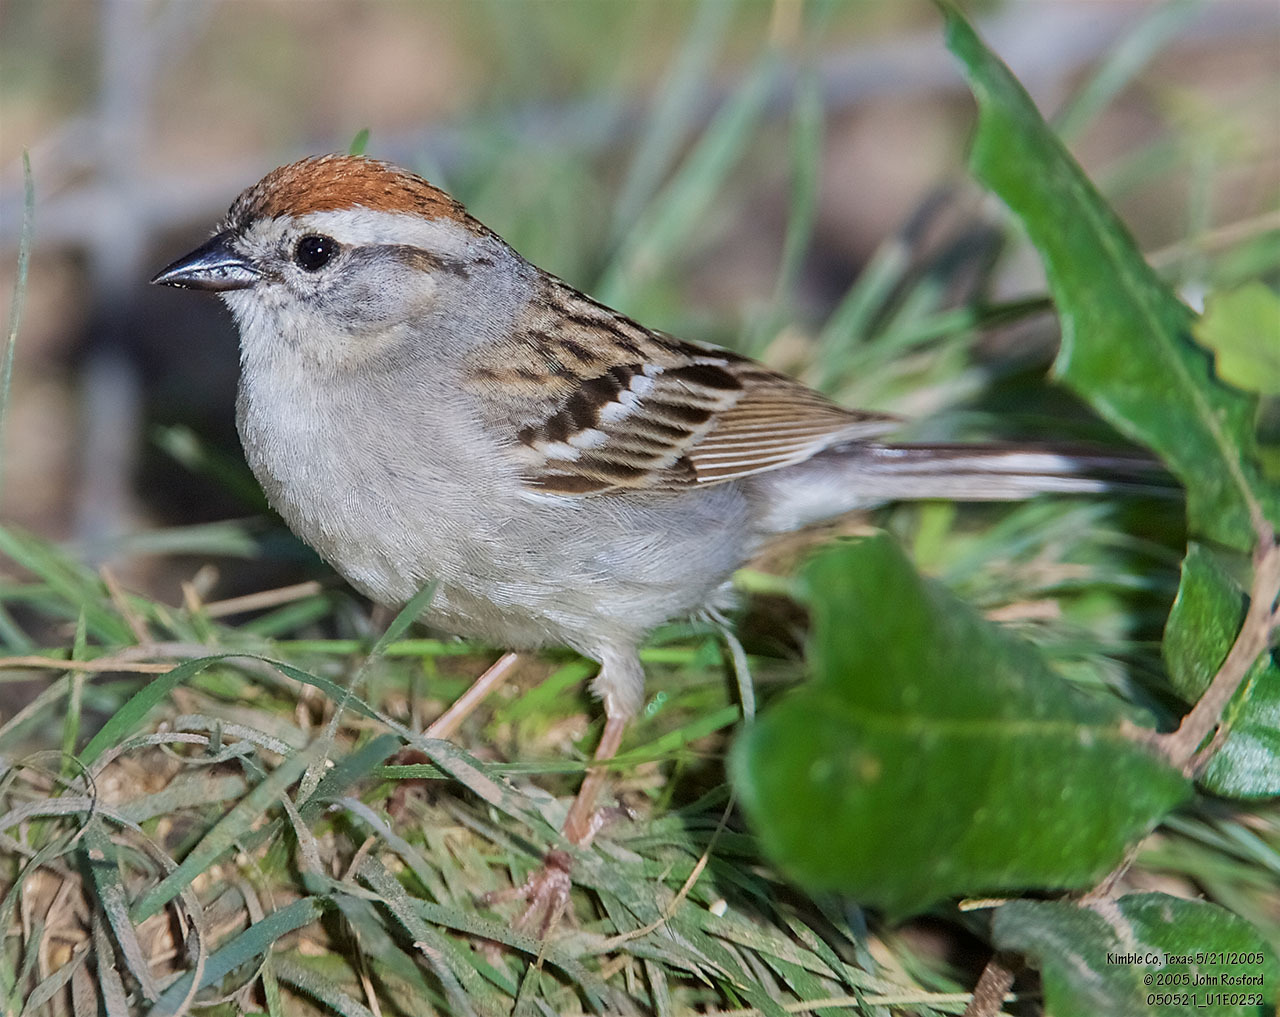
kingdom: Animalia
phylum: Chordata
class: Aves
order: Passeriformes
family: Passerellidae
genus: Spizella
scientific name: Spizella passerina
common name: Chipping sparrow
